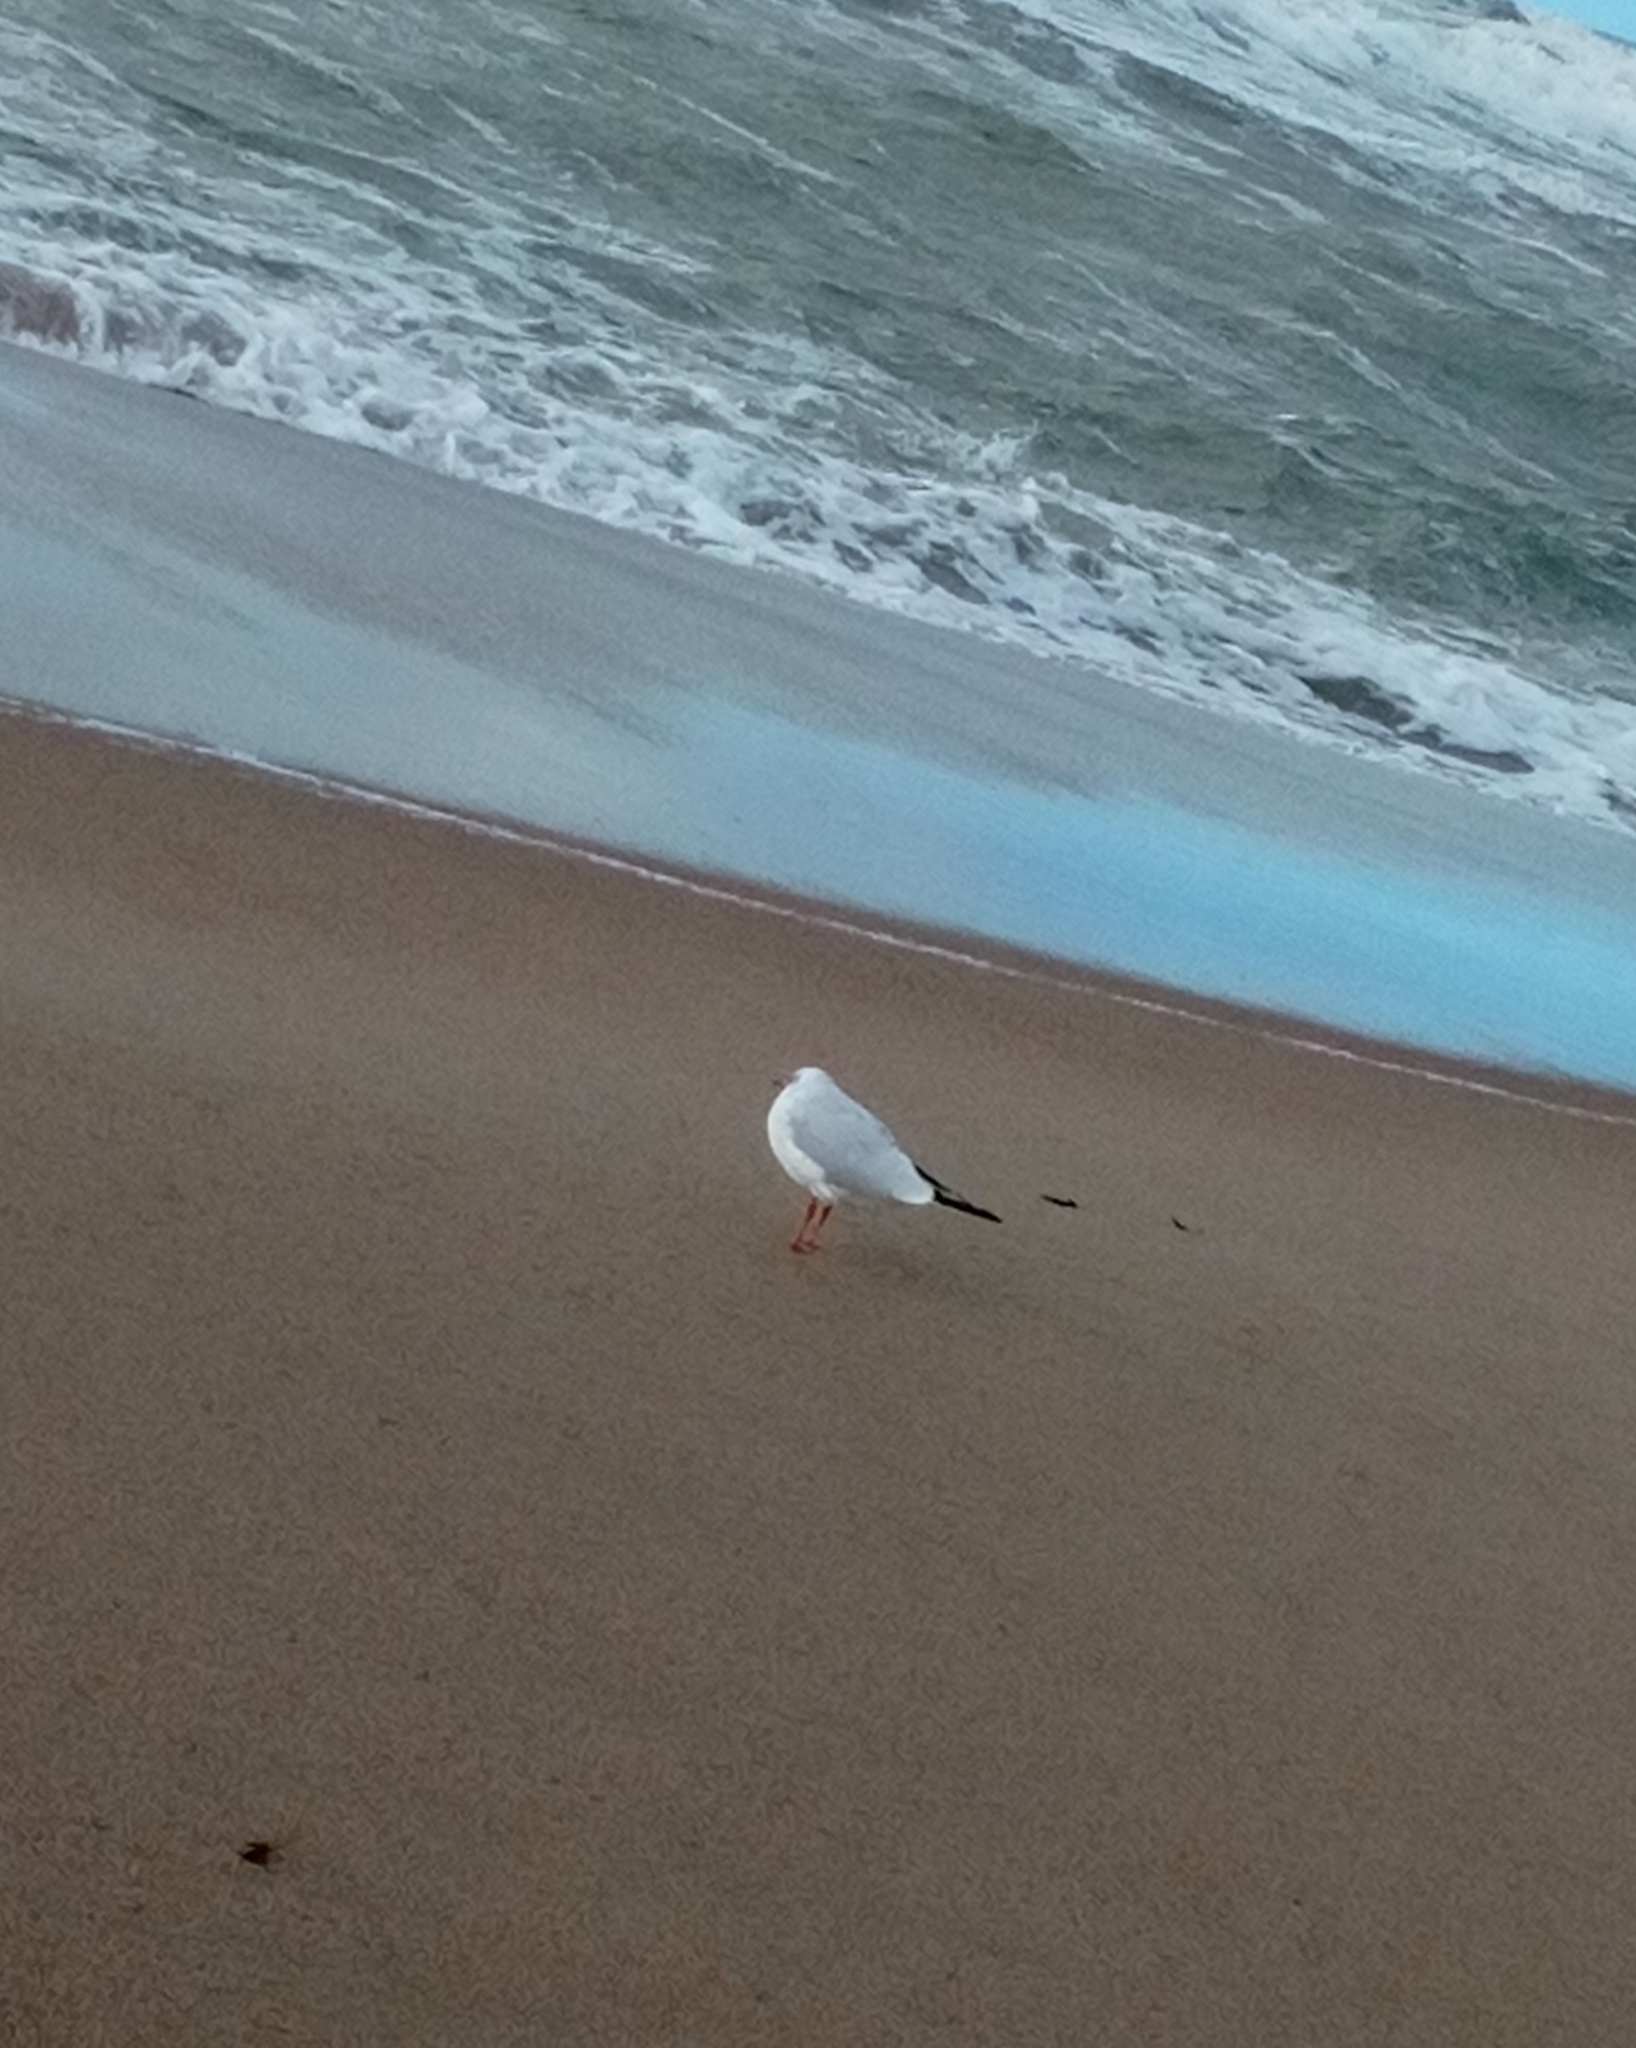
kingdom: Animalia
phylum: Chordata
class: Aves
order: Charadriiformes
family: Laridae
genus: Chroicocephalus
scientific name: Chroicocephalus ridibundus
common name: Black-headed gull
